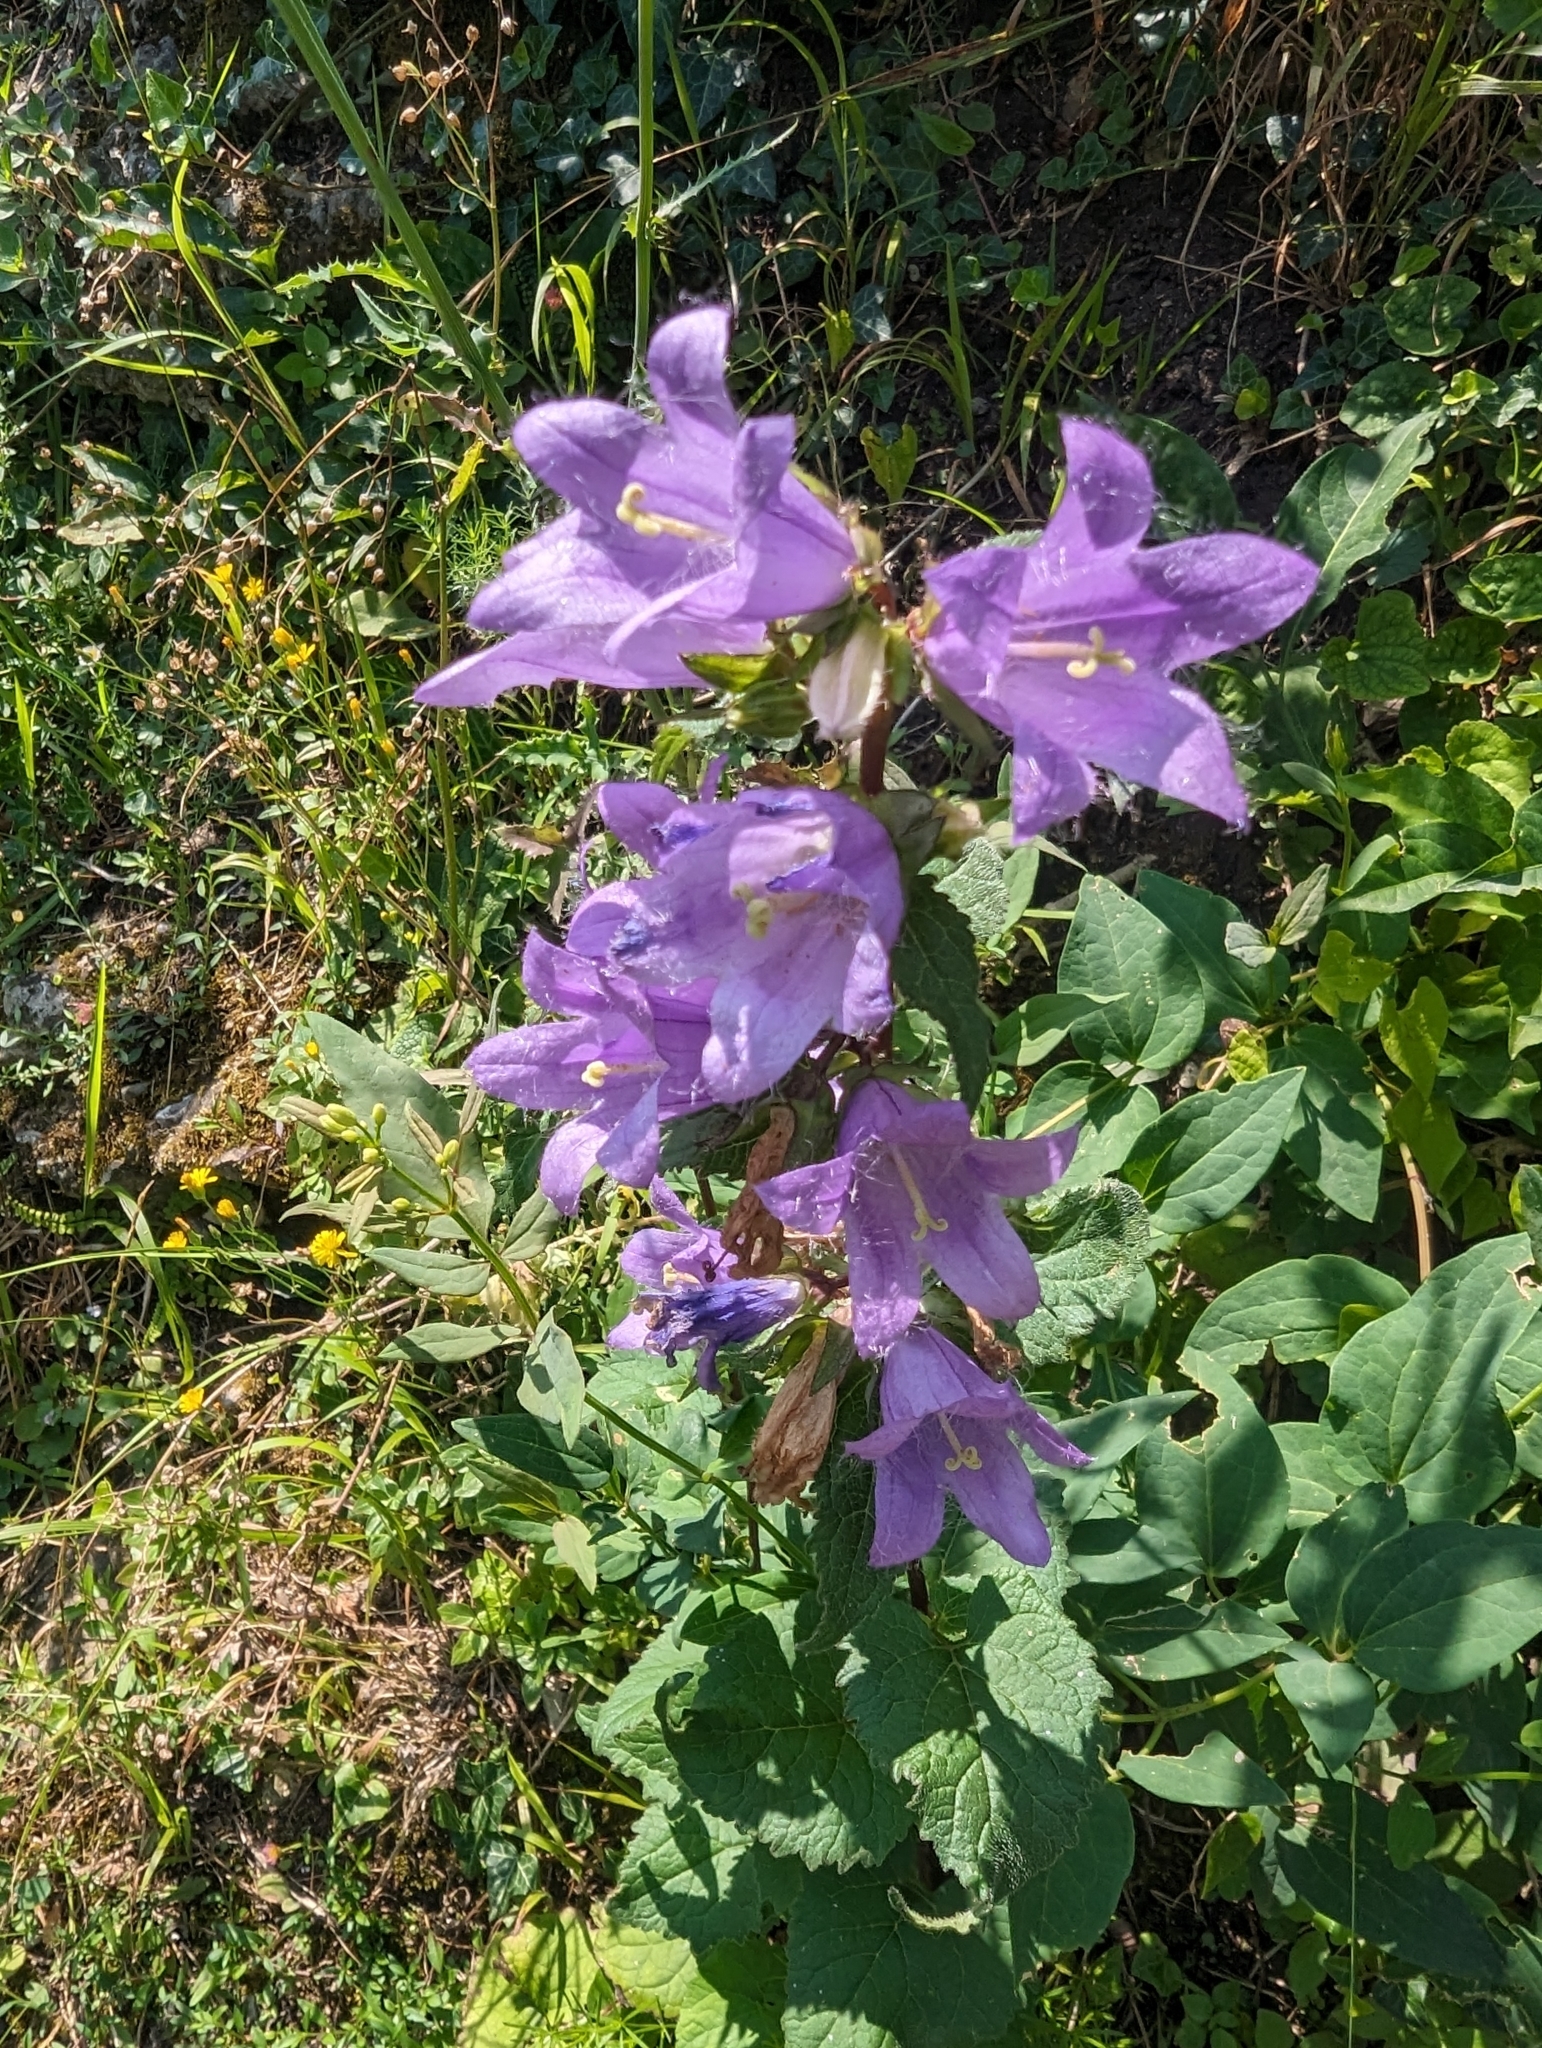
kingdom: Plantae
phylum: Tracheophyta
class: Magnoliopsida
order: Asterales
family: Campanulaceae
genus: Campanula
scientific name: Campanula trachelium
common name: Nettle-leaved bellflower
